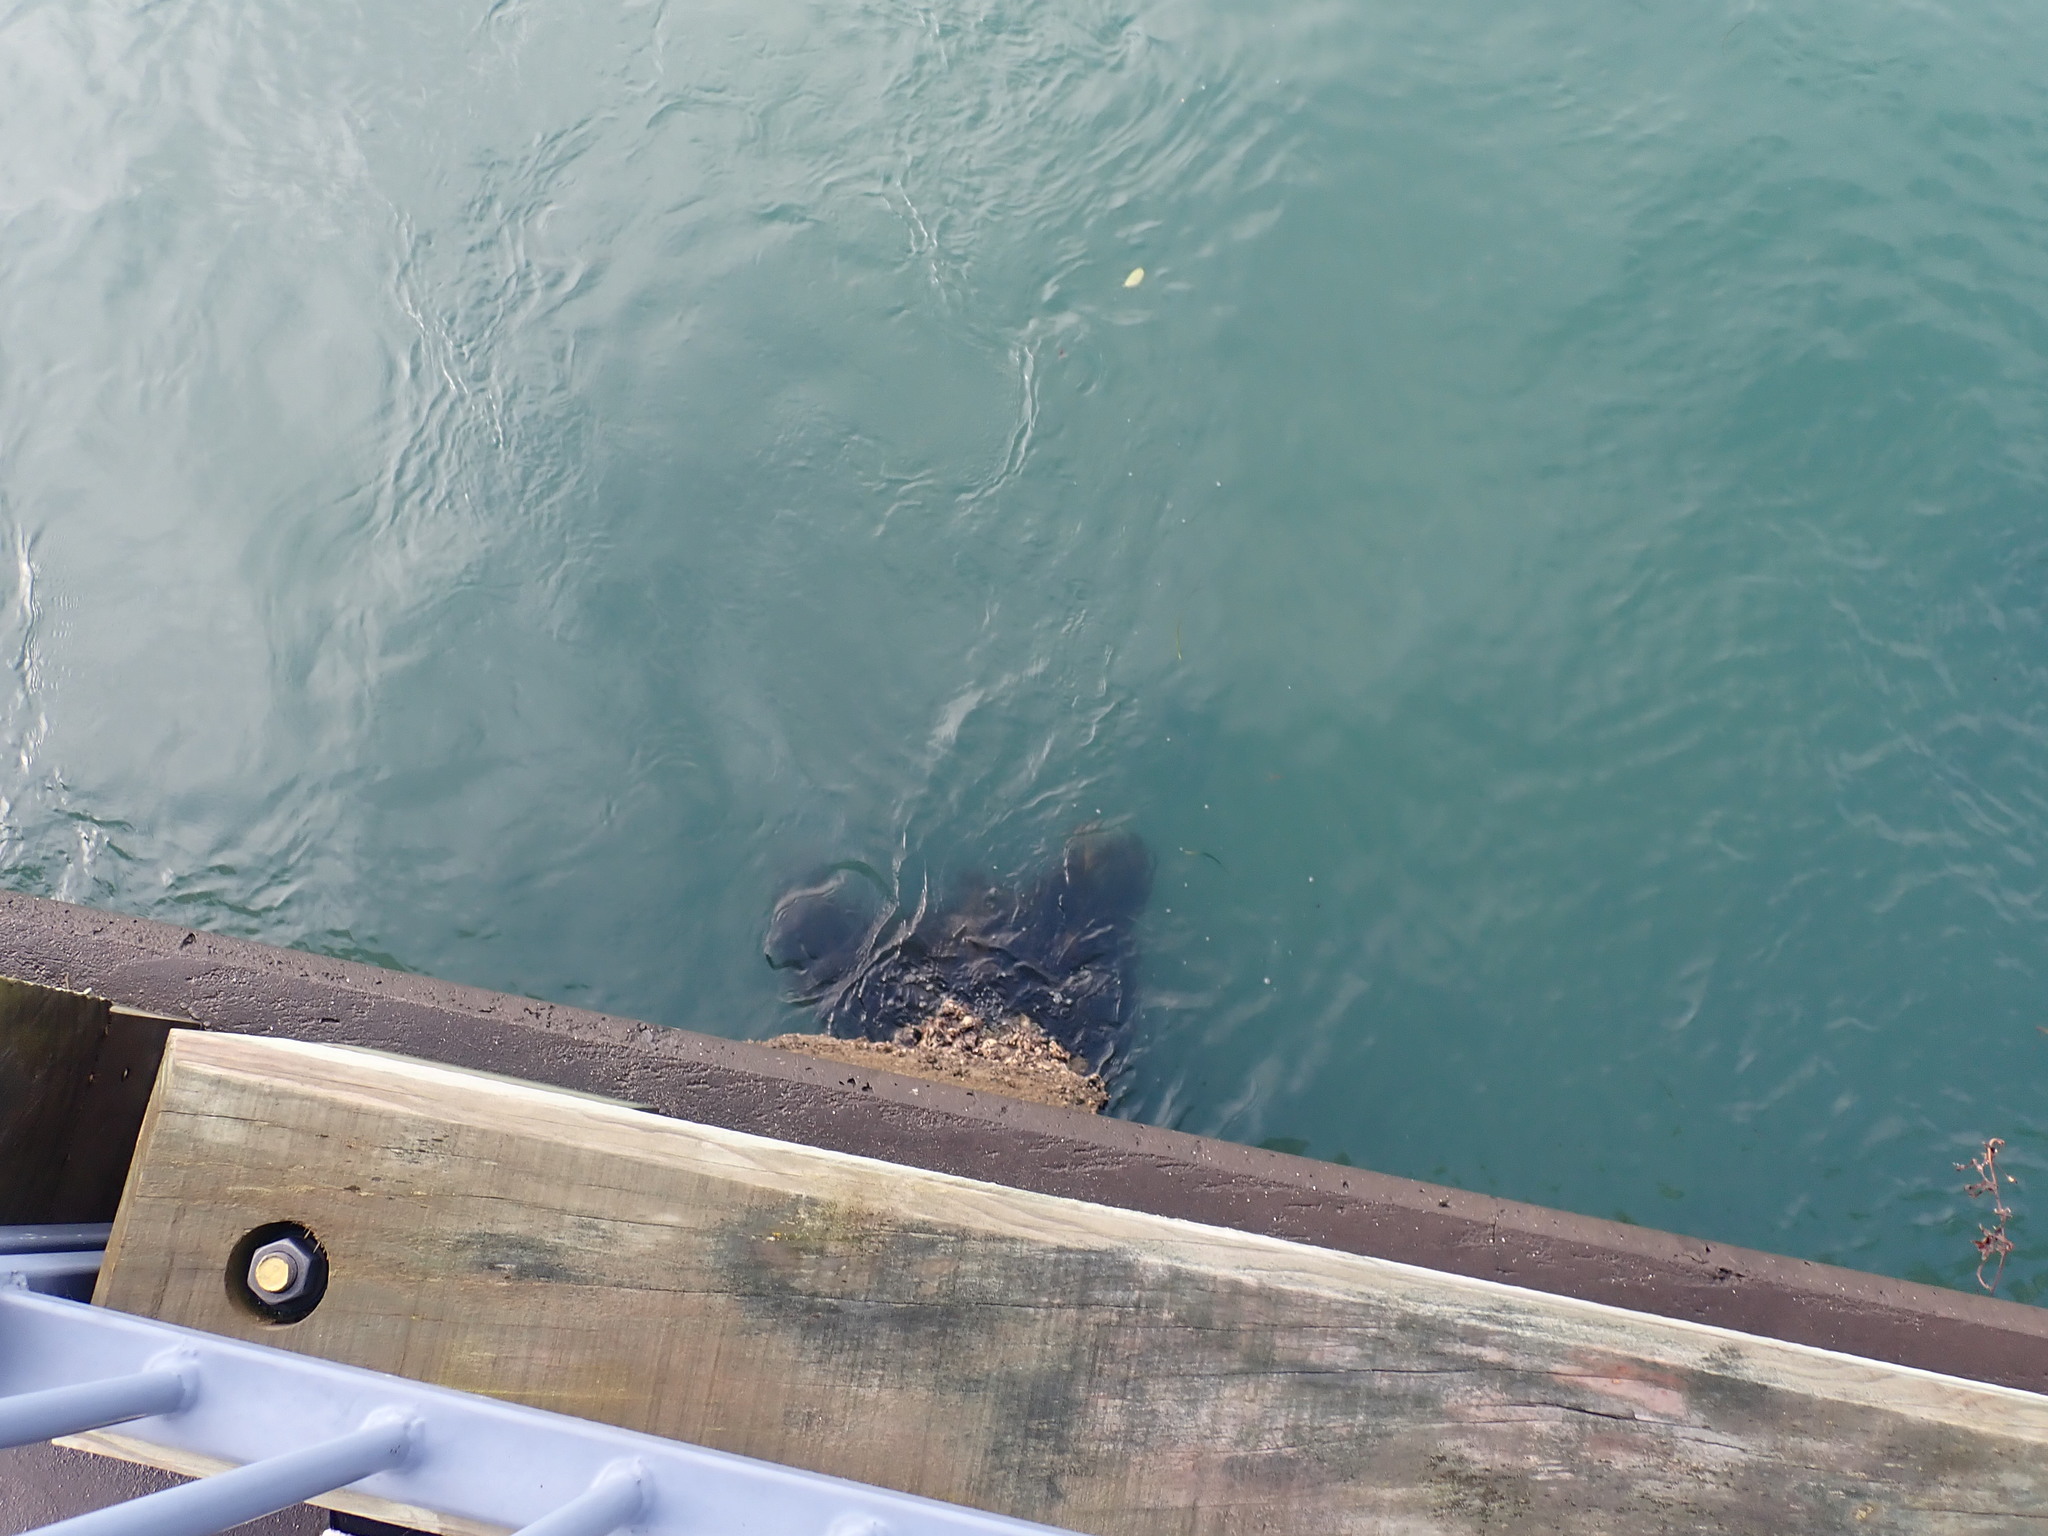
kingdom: Chromista
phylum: Ochrophyta
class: Phaeophyceae
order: Laminariales
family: Alariaceae
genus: Undaria
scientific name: Undaria pinnatifida
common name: Asian kelp
